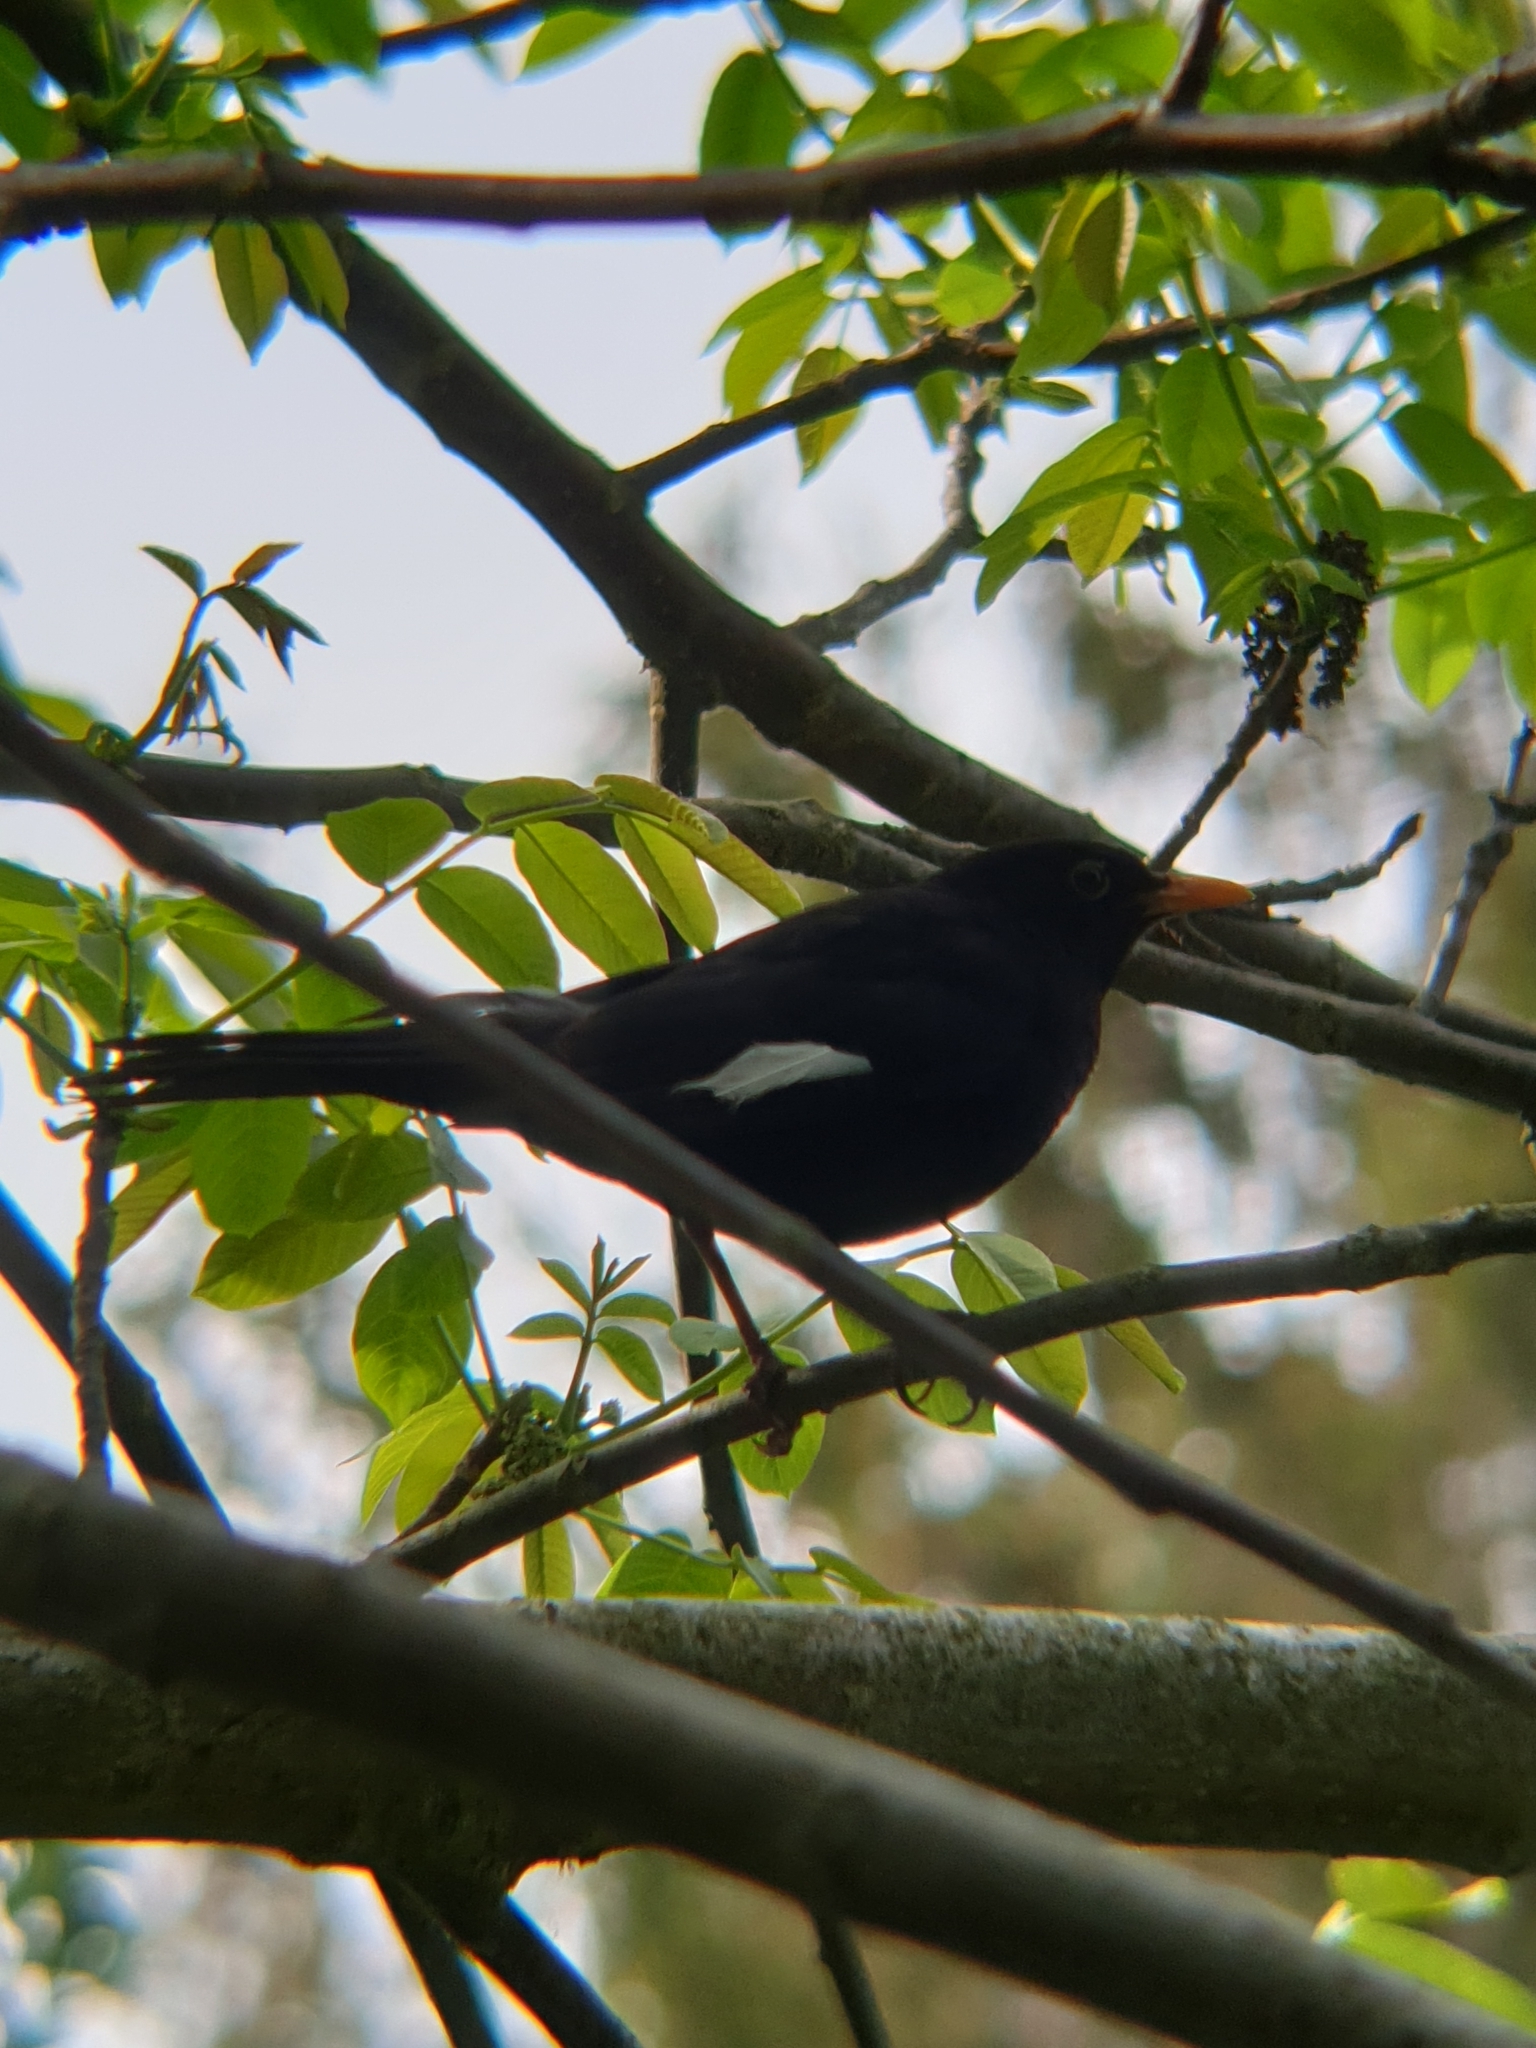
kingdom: Animalia
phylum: Chordata
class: Aves
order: Passeriformes
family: Turdidae
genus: Turdus
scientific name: Turdus merula
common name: Common blackbird
